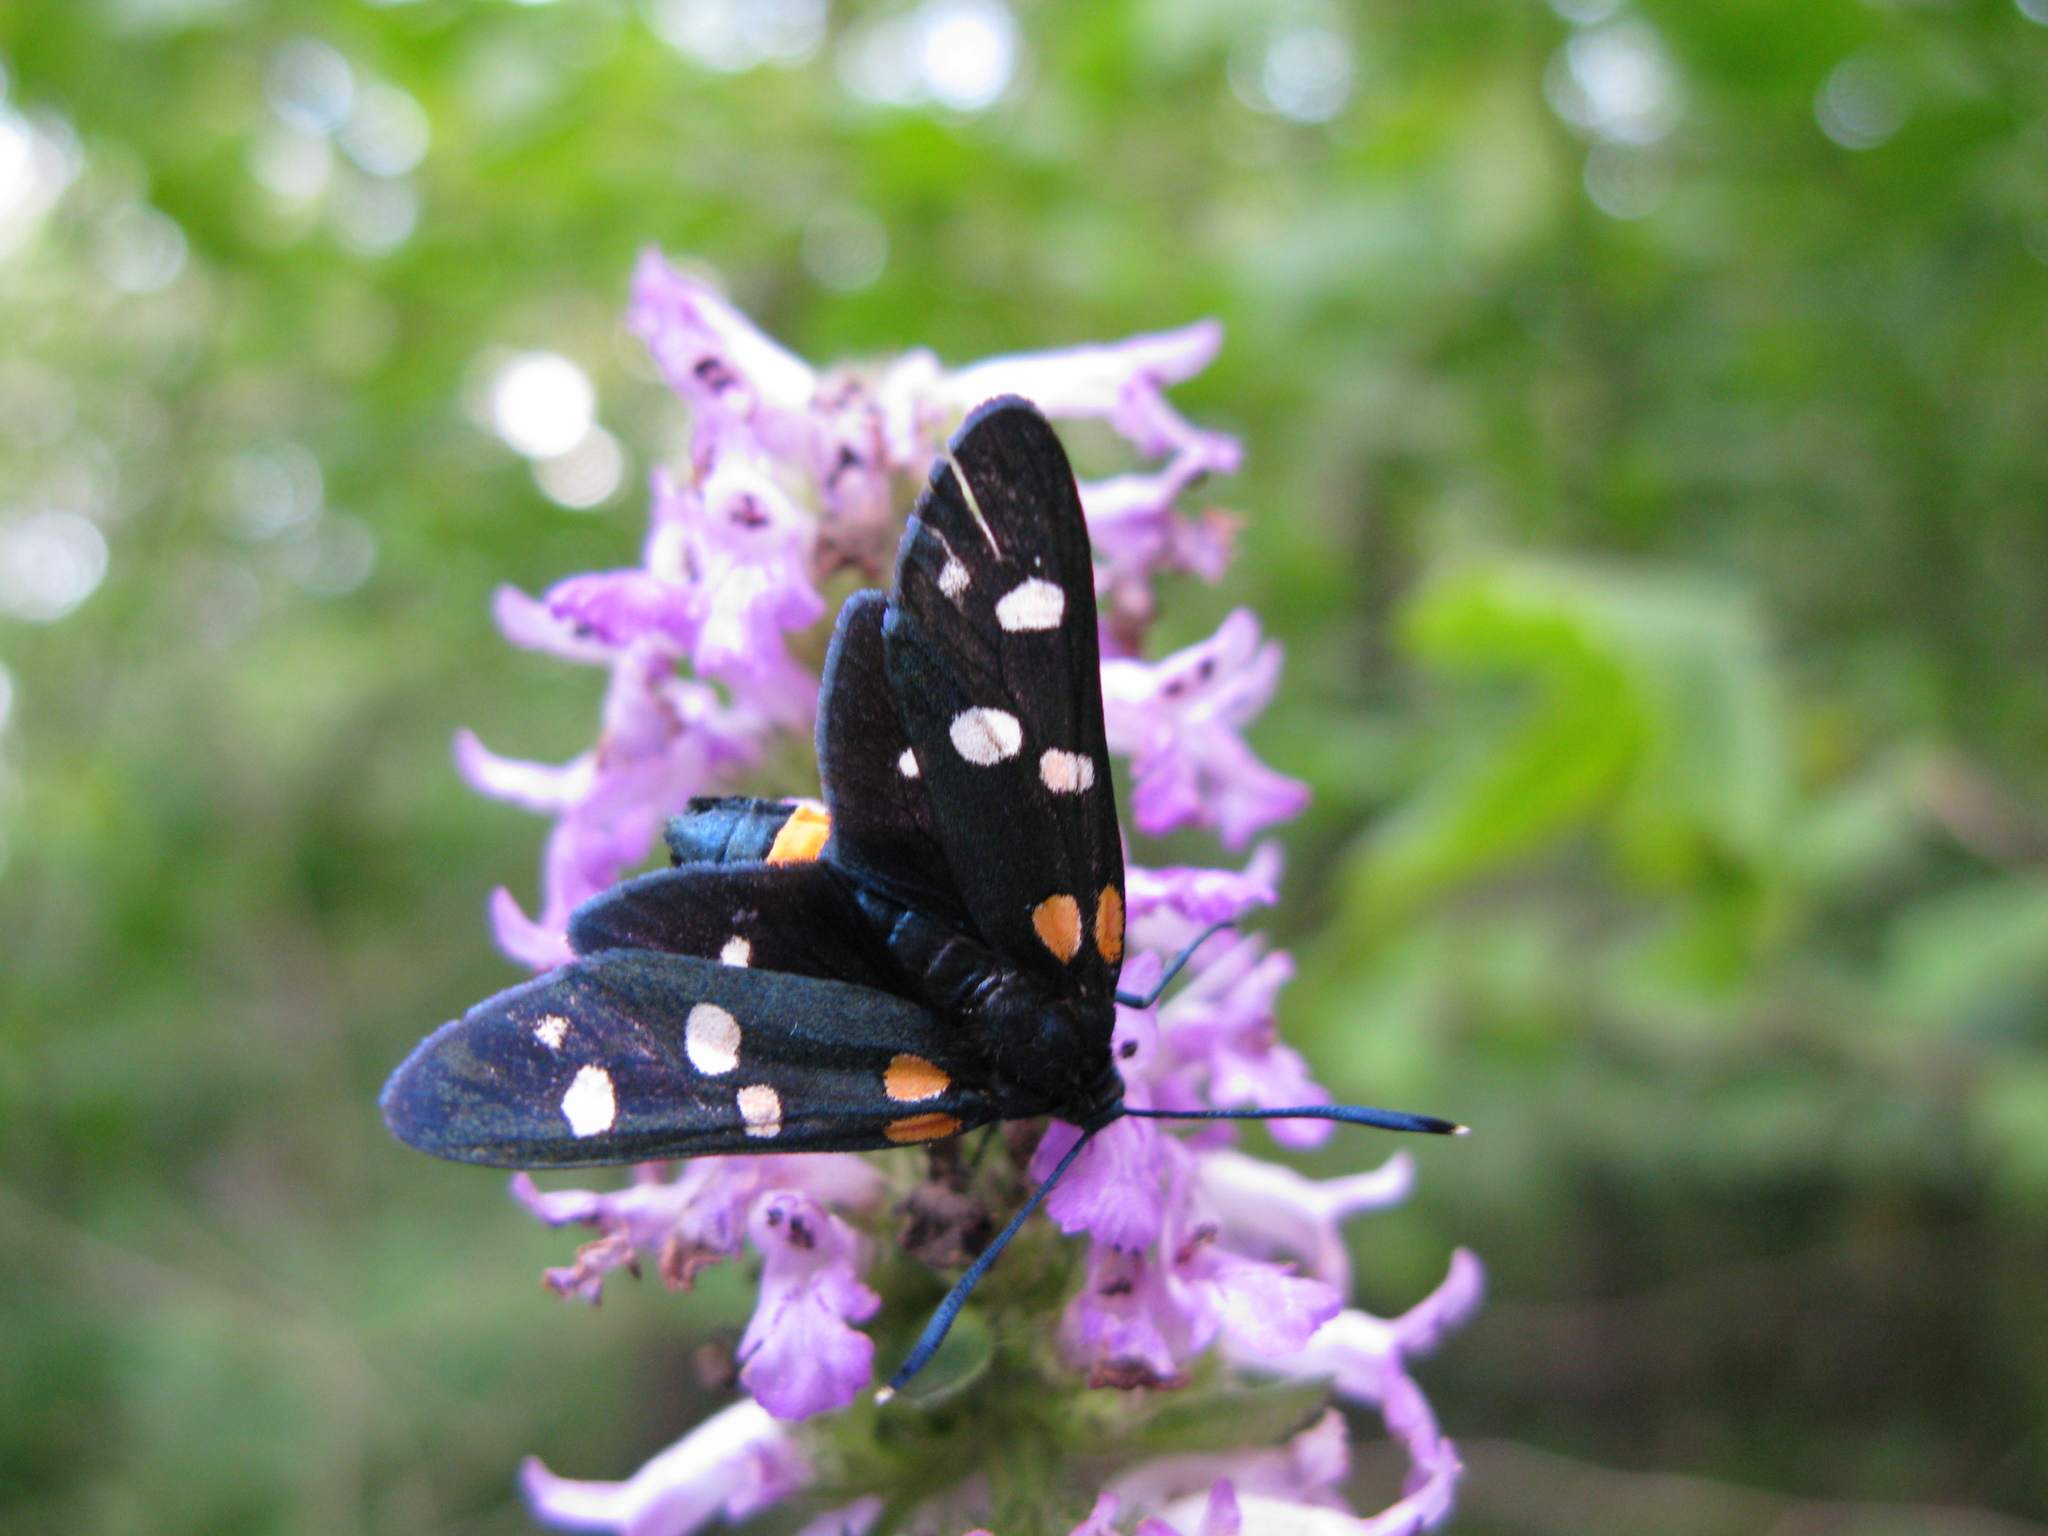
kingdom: Animalia
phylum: Arthropoda
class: Insecta
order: Lepidoptera
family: Zygaenidae
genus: Zygaena
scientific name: Zygaena ephialtes
